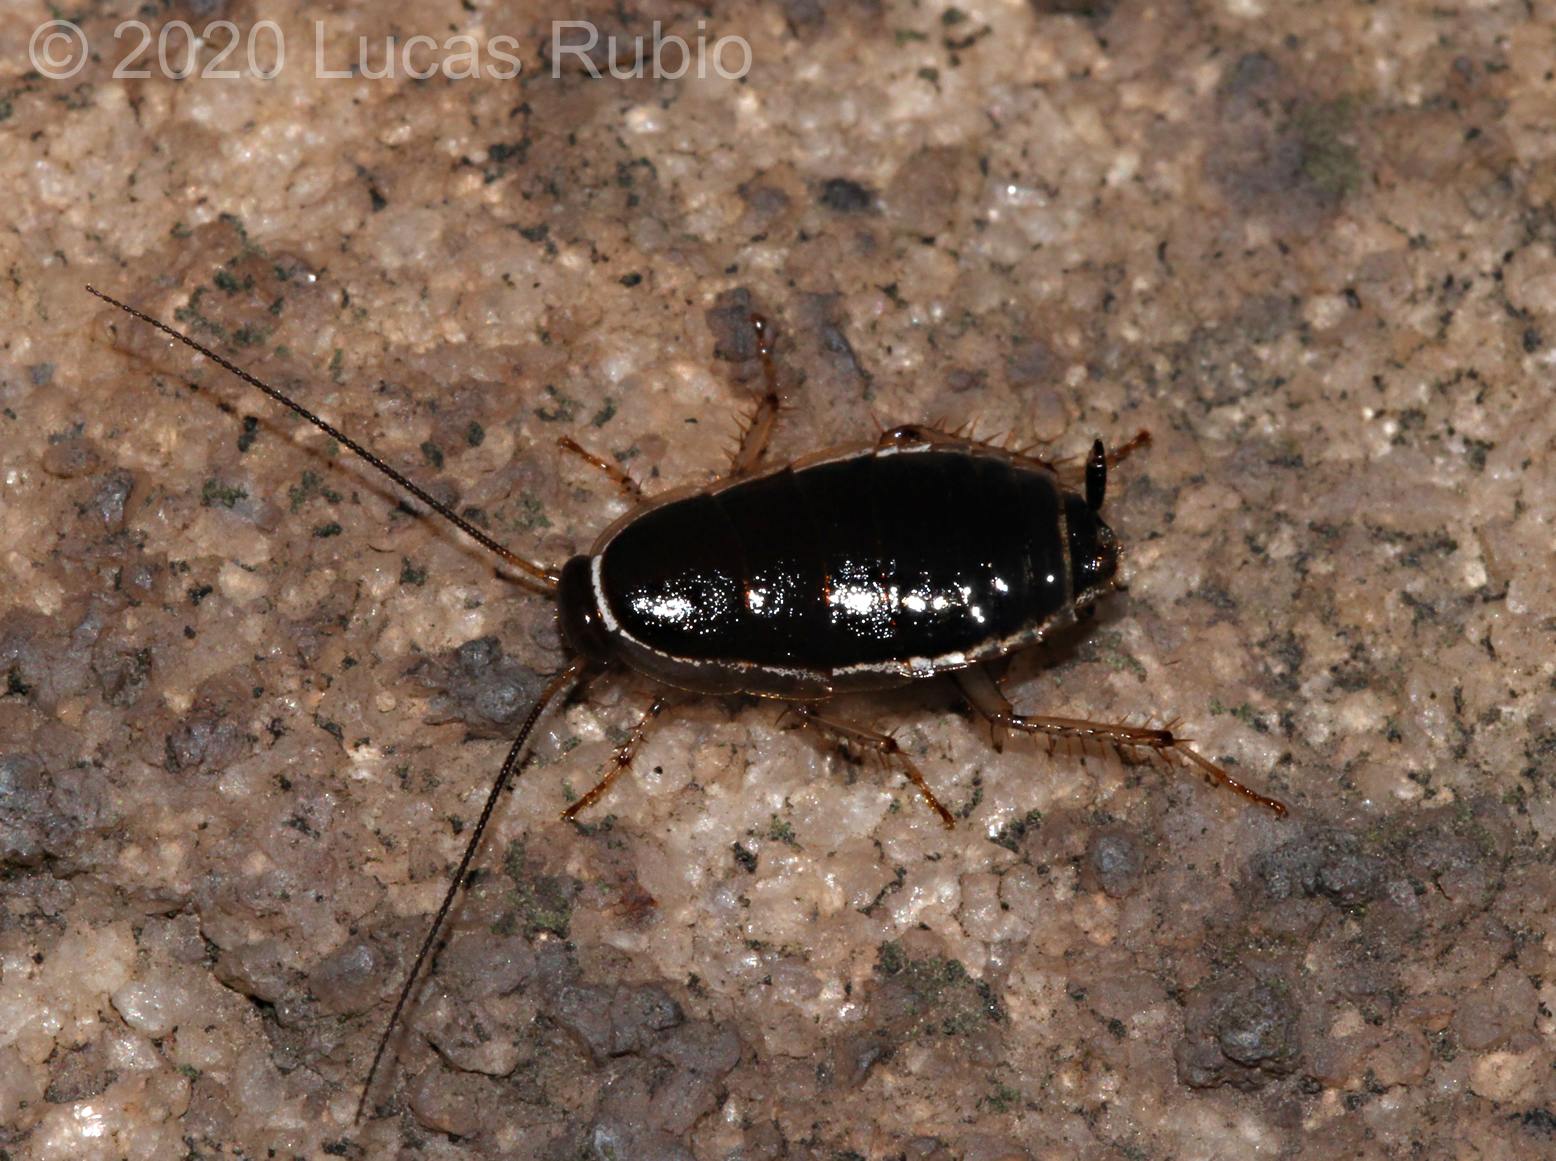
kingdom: Animalia
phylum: Arthropoda
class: Insecta
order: Blattodea
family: Ectobiidae
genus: Agmoblatta
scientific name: Agmoblatta thaxteri
